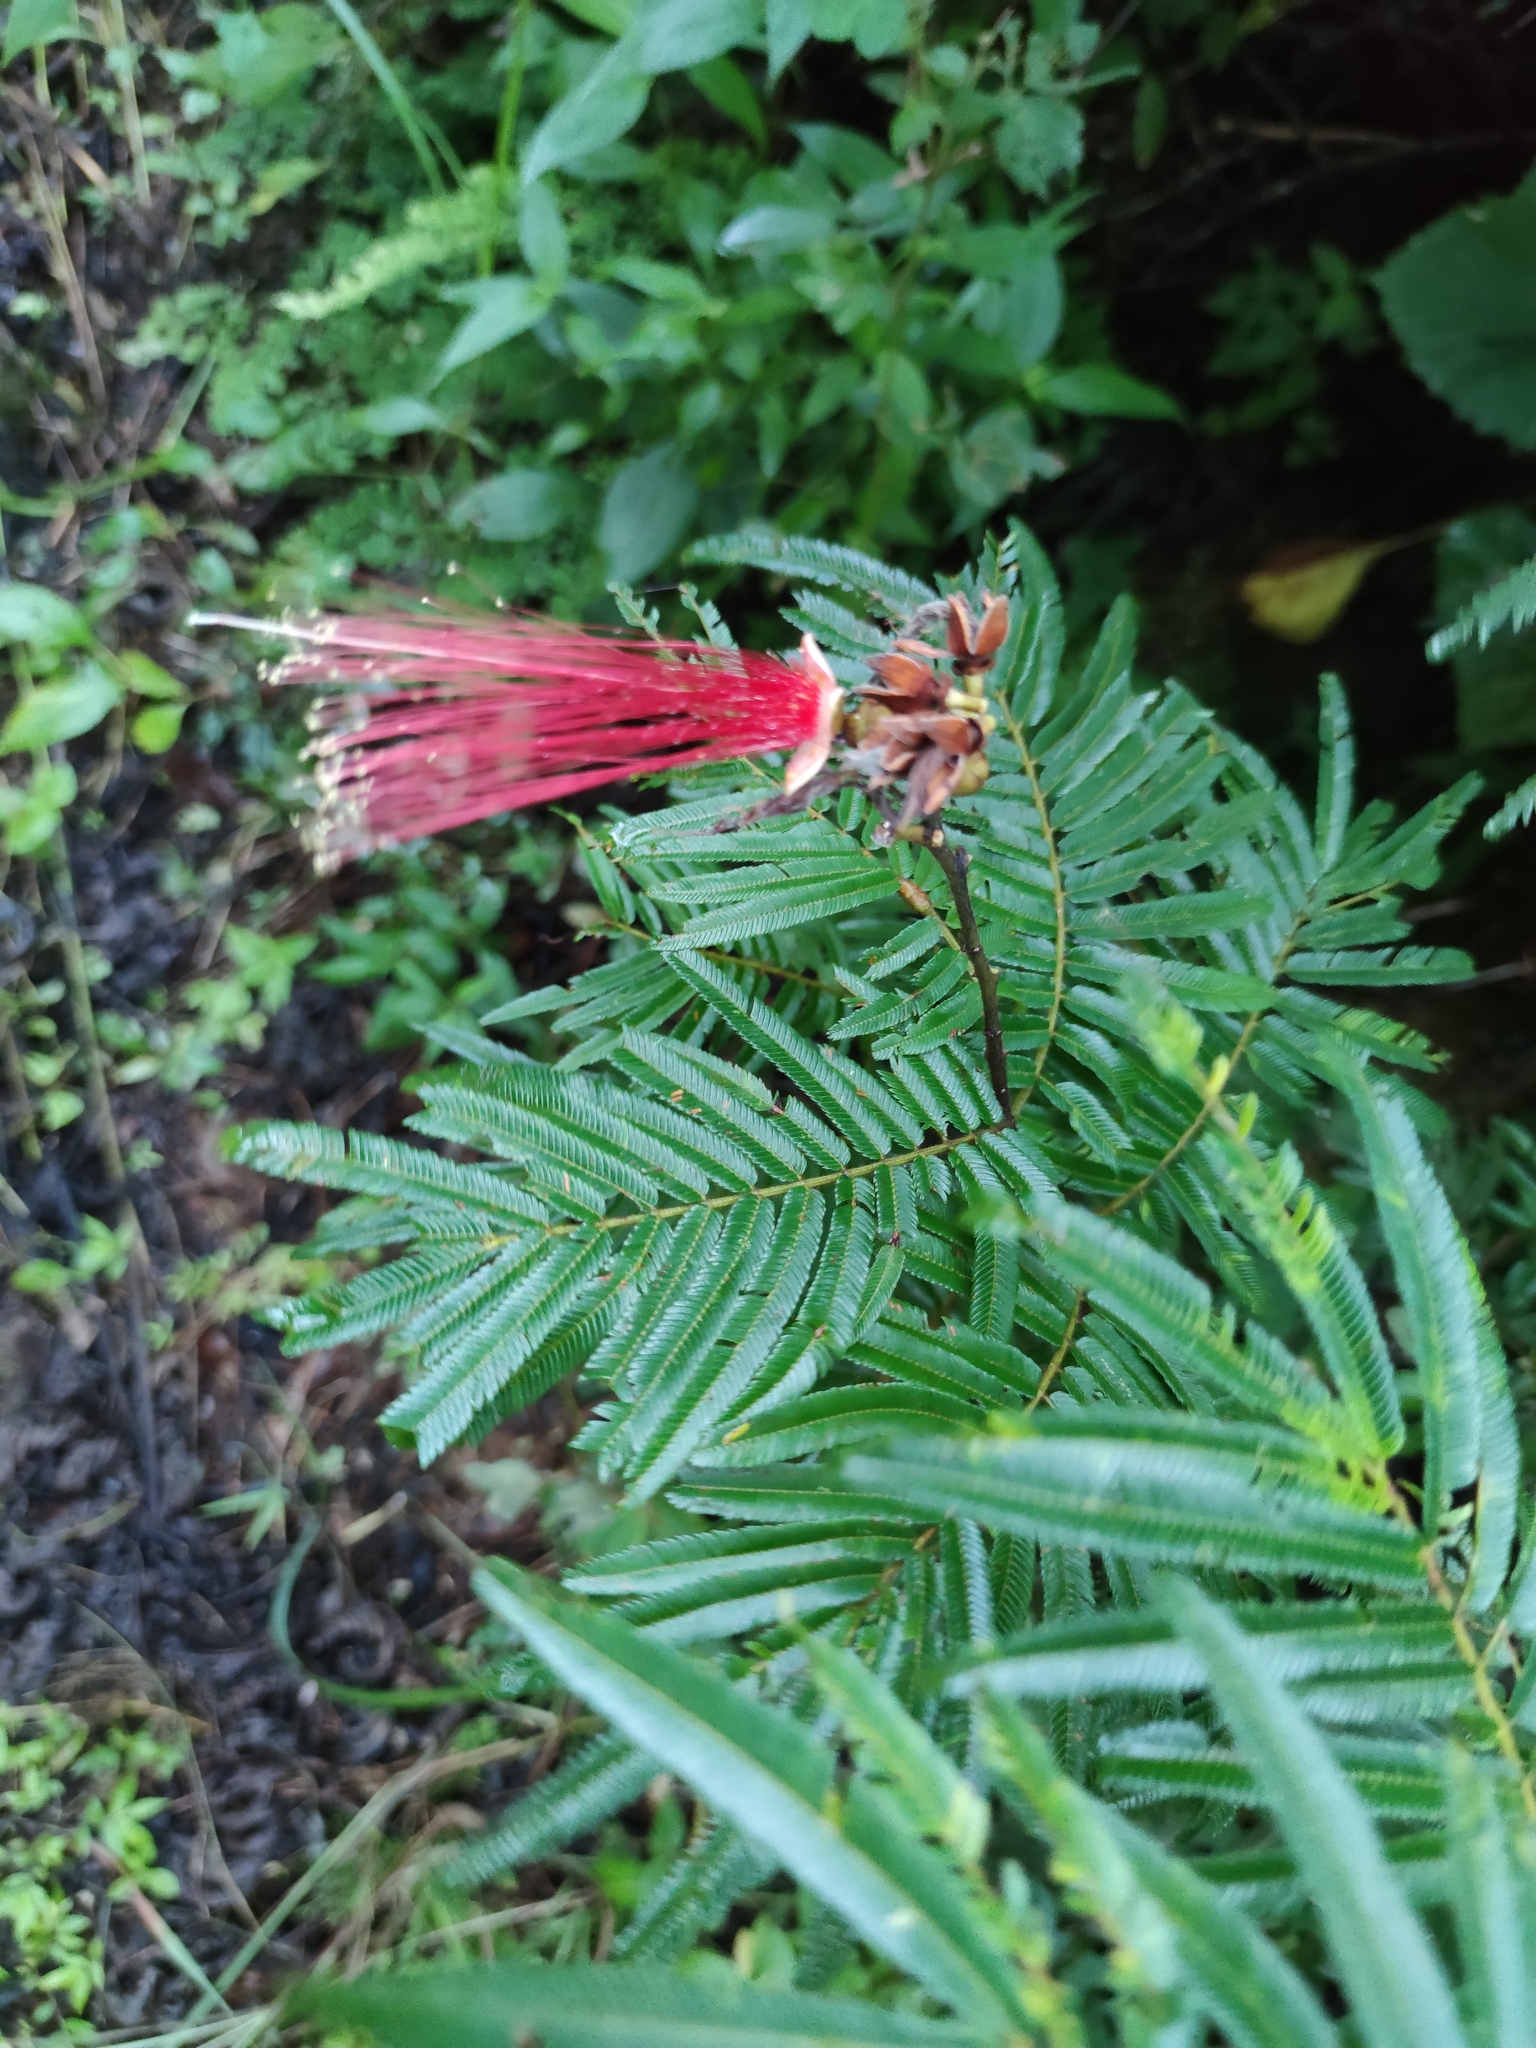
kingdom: Plantae
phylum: Tracheophyta
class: Magnoliopsida
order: Fabales
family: Fabaceae
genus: Calliandra
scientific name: Calliandra houstoniana
